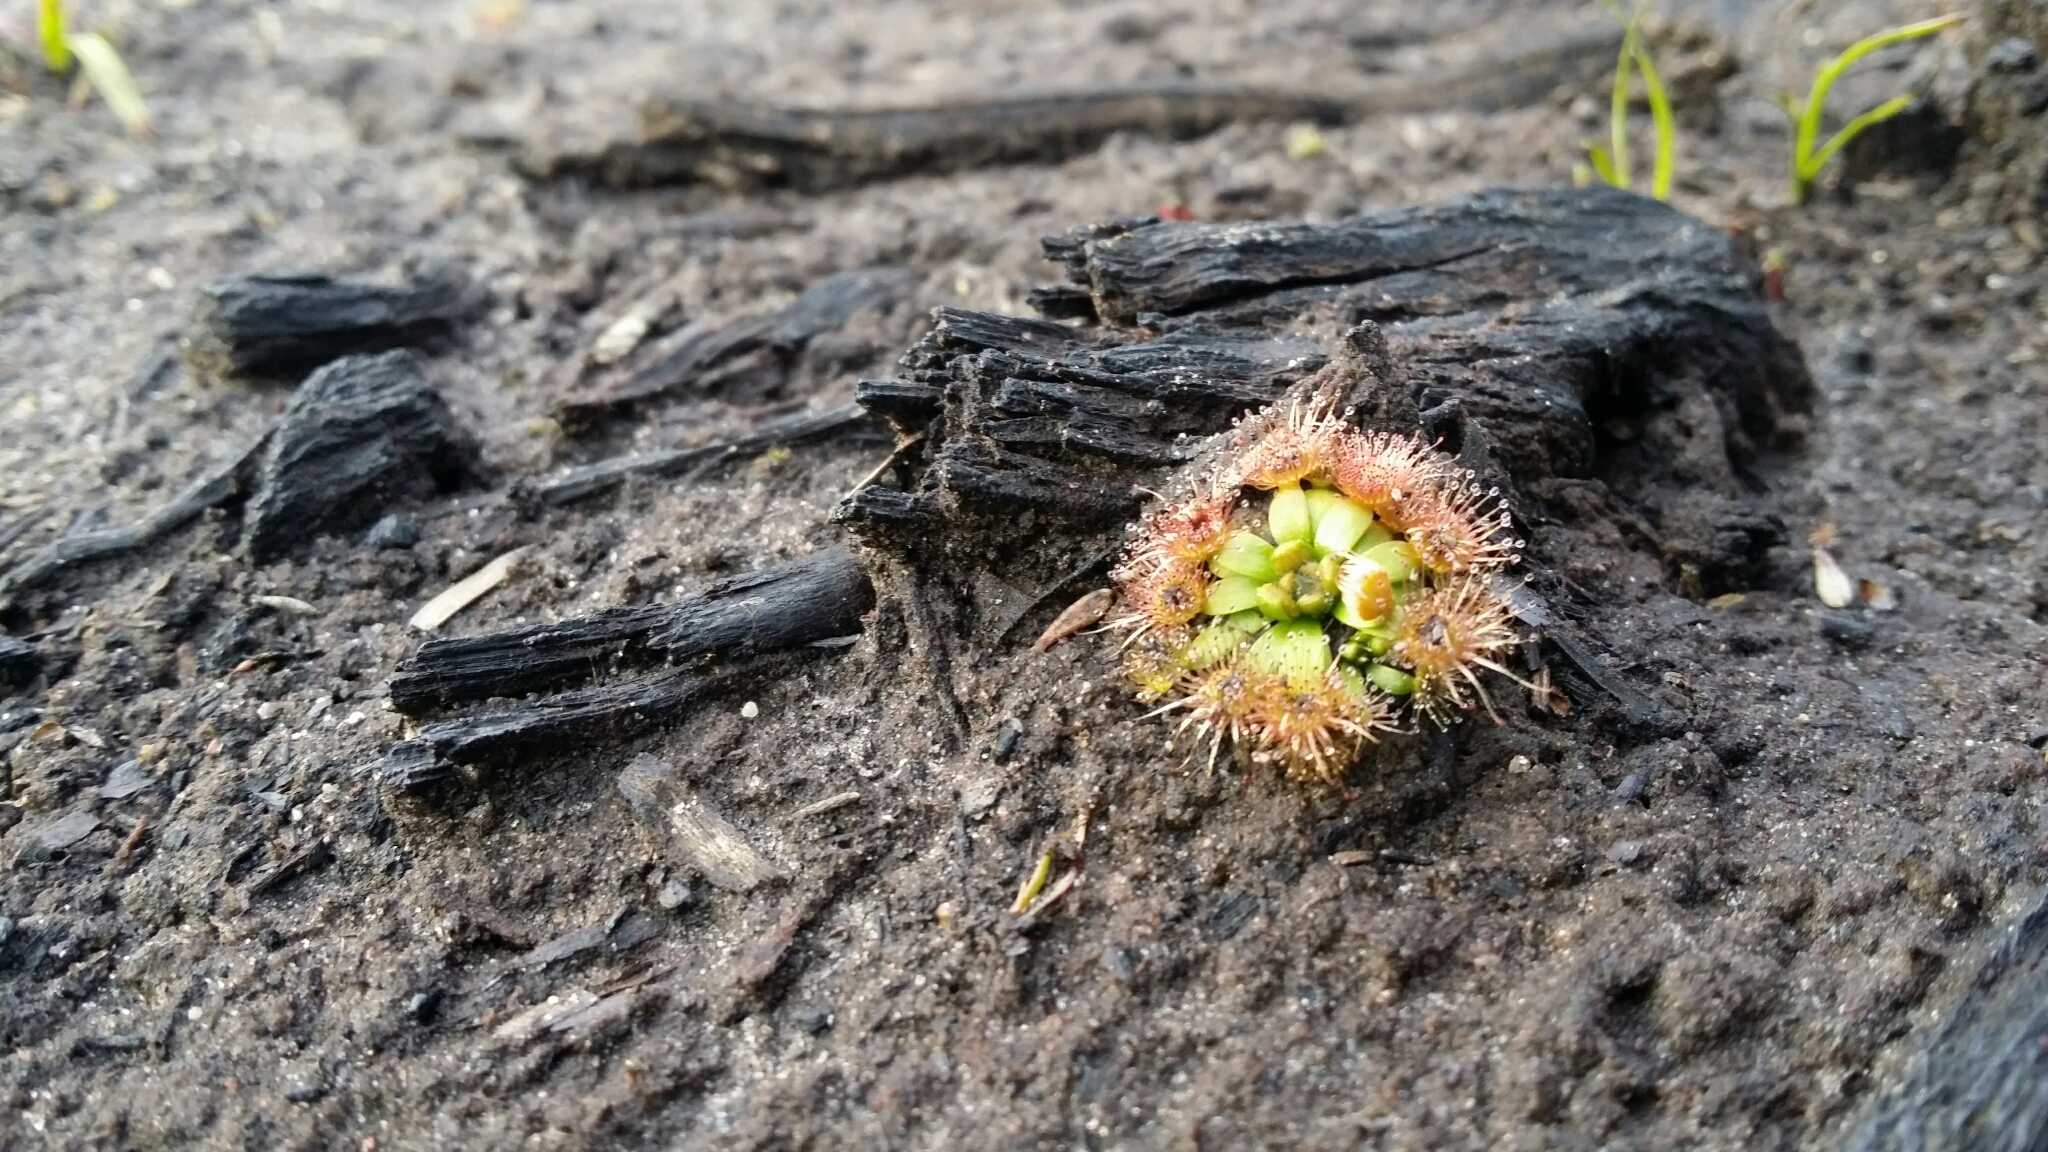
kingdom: Plantae
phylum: Tracheophyta
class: Magnoliopsida
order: Caryophyllales
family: Droseraceae
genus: Drosera
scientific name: Drosera pulchella
